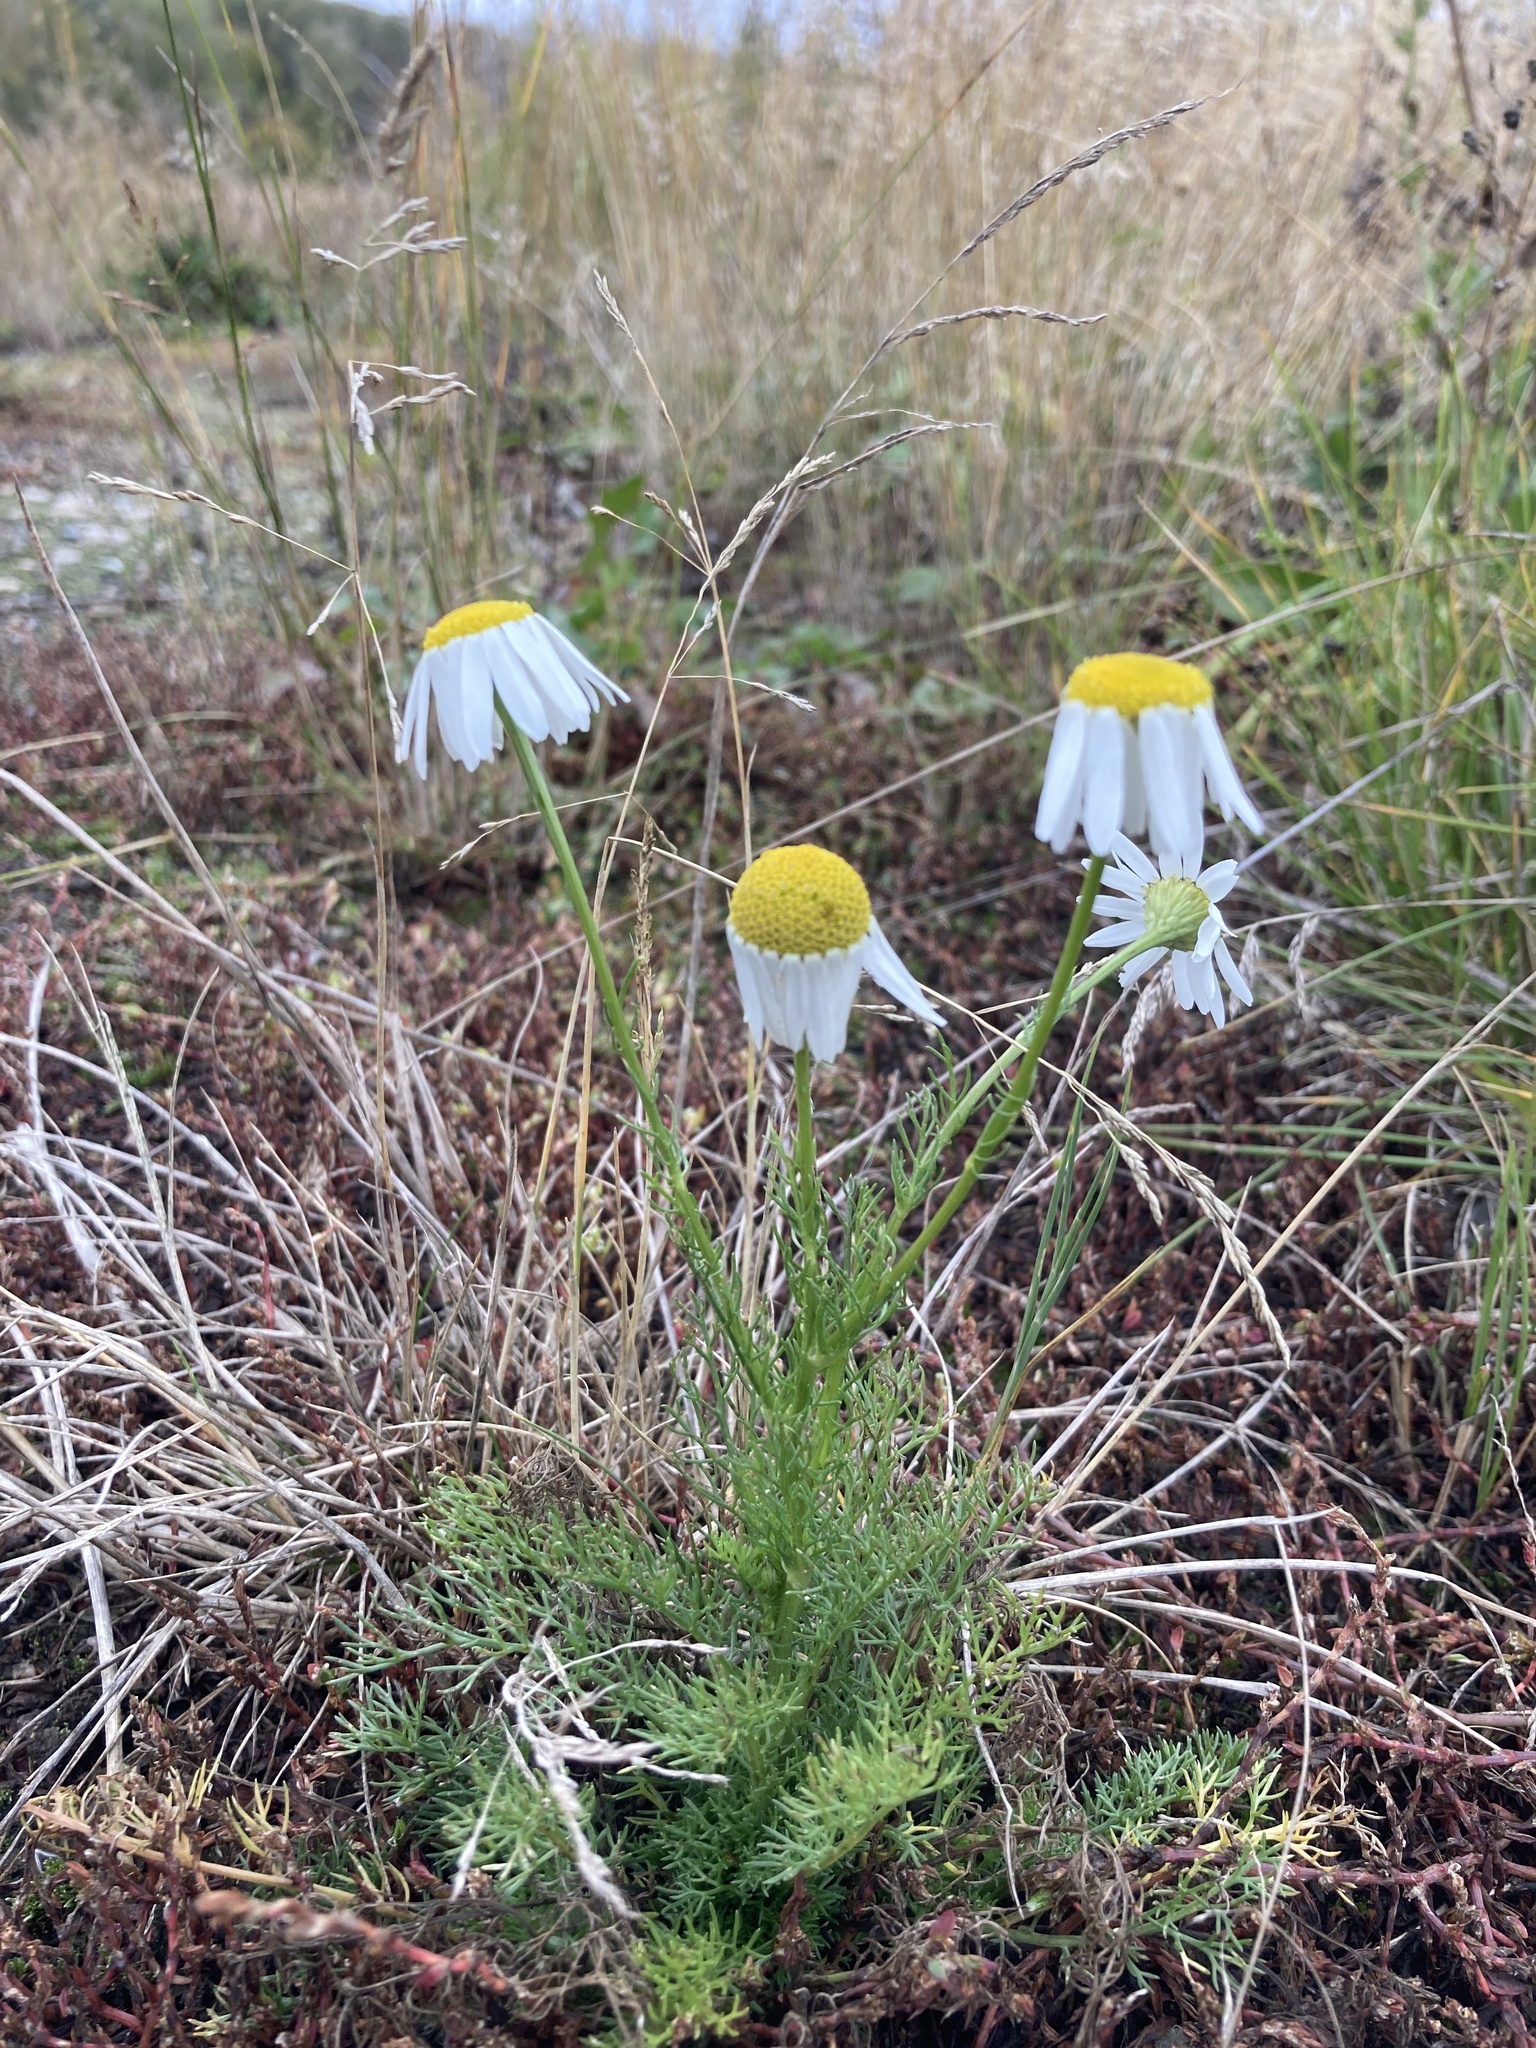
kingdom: Plantae
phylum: Tracheophyta
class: Magnoliopsida
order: Asterales
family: Asteraceae
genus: Tripleurospermum
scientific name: Tripleurospermum inodorum
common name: Scentless mayweed
